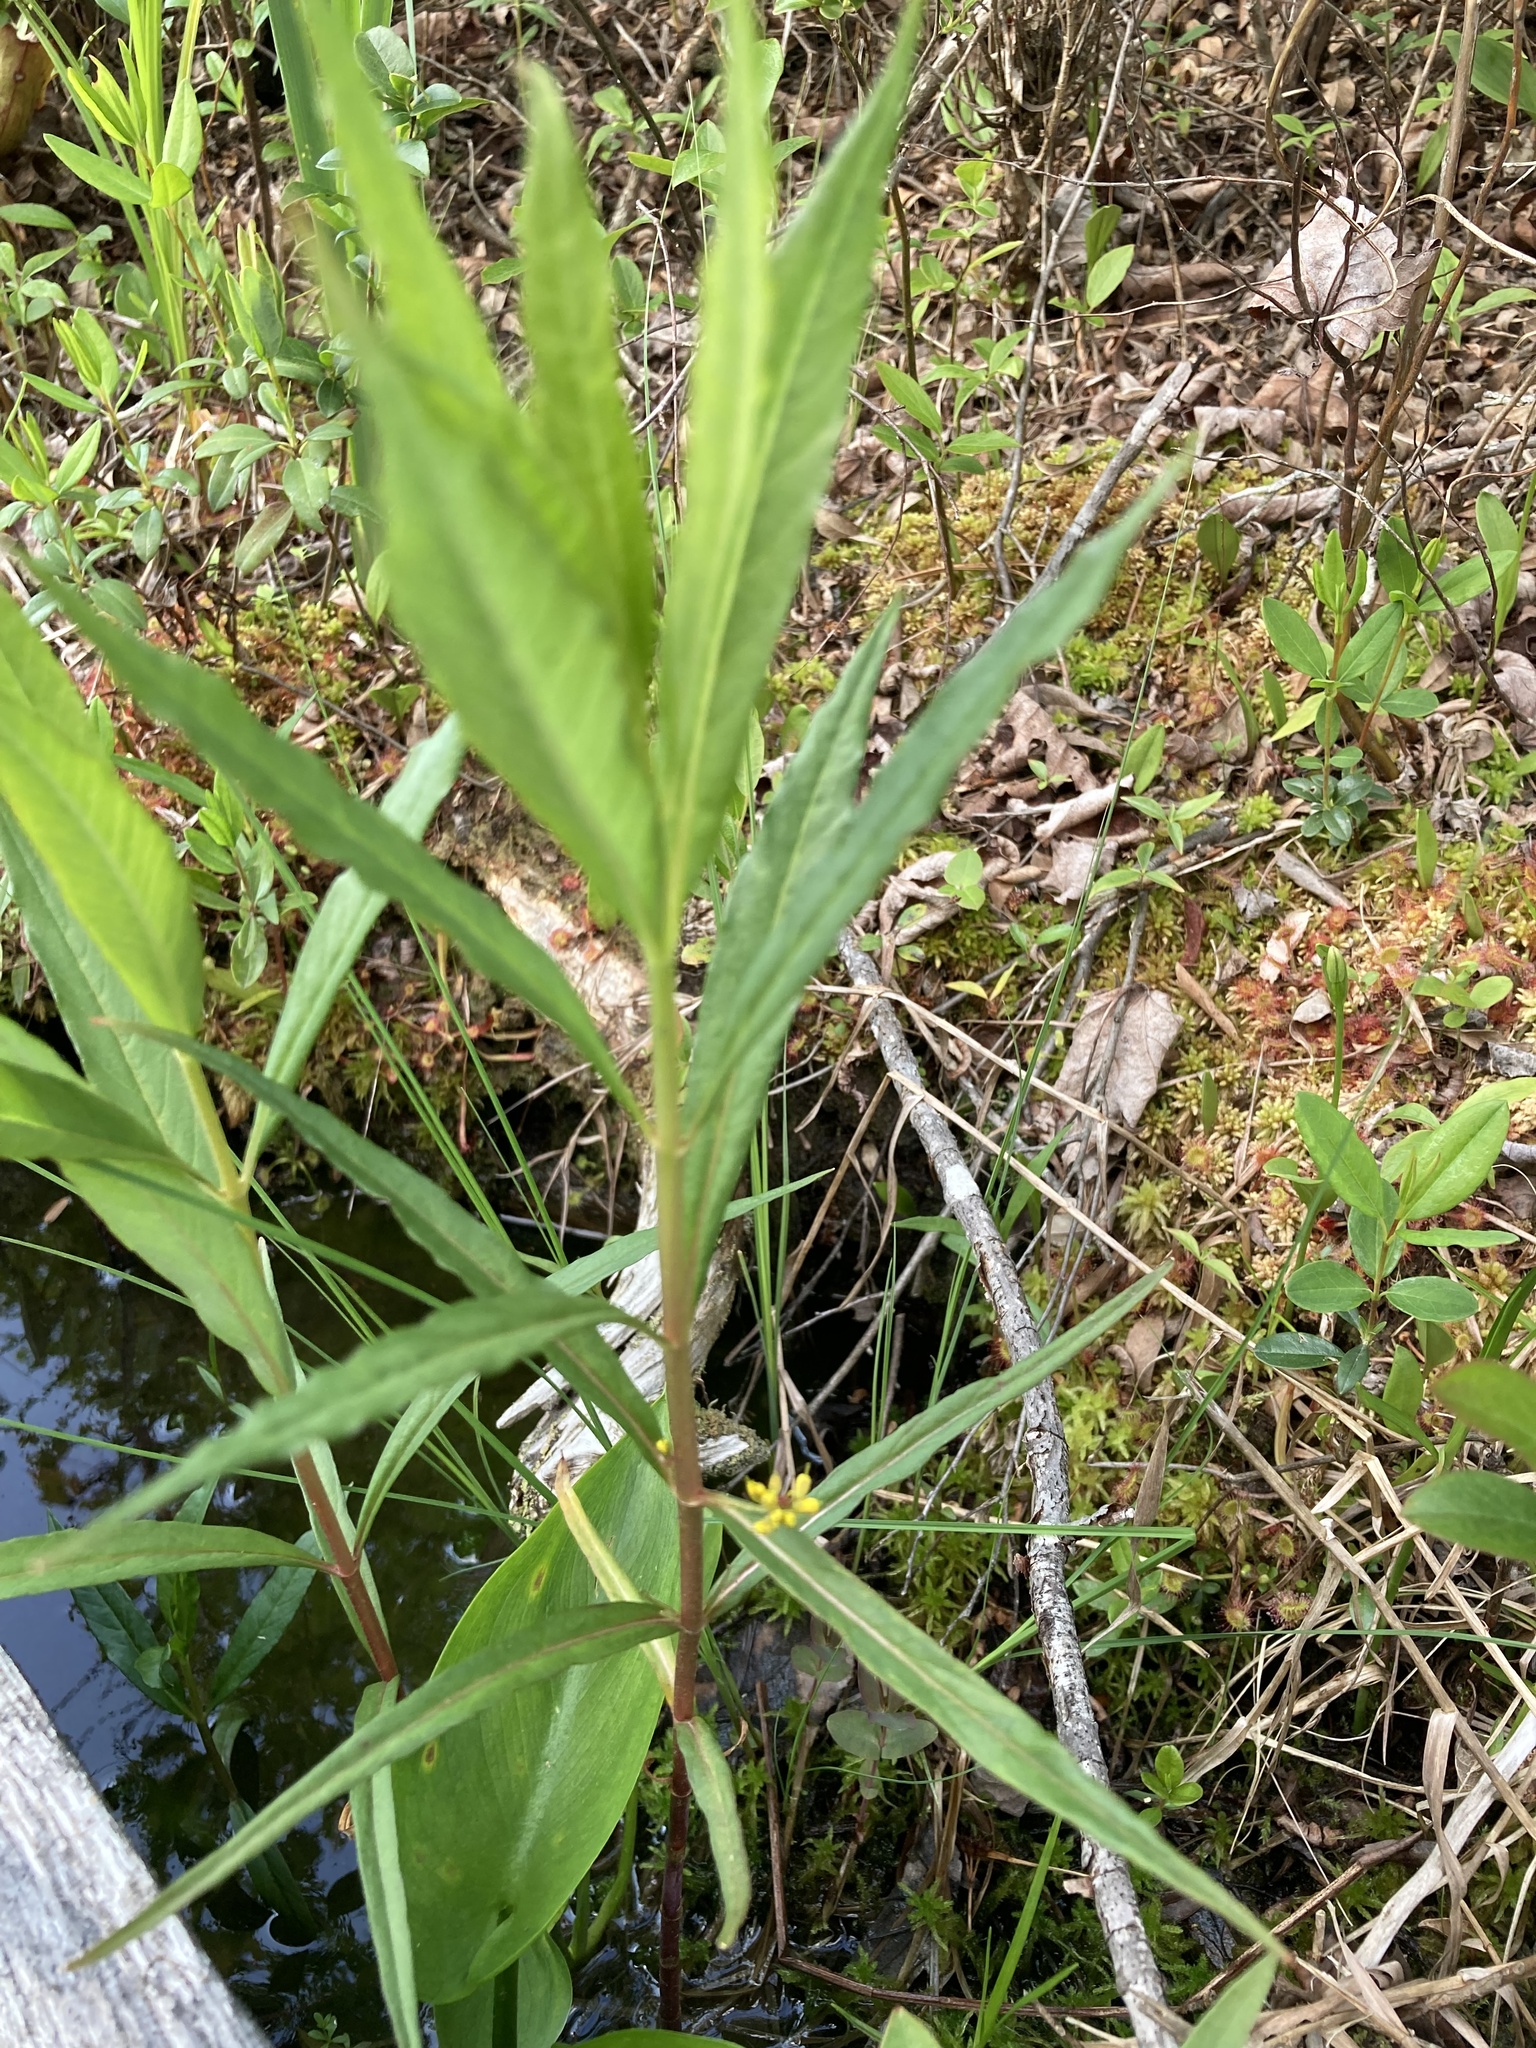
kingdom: Plantae
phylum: Tracheophyta
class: Magnoliopsida
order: Ericales
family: Primulaceae
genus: Lysimachia
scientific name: Lysimachia thyrsiflora
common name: Tufted loosestrife
